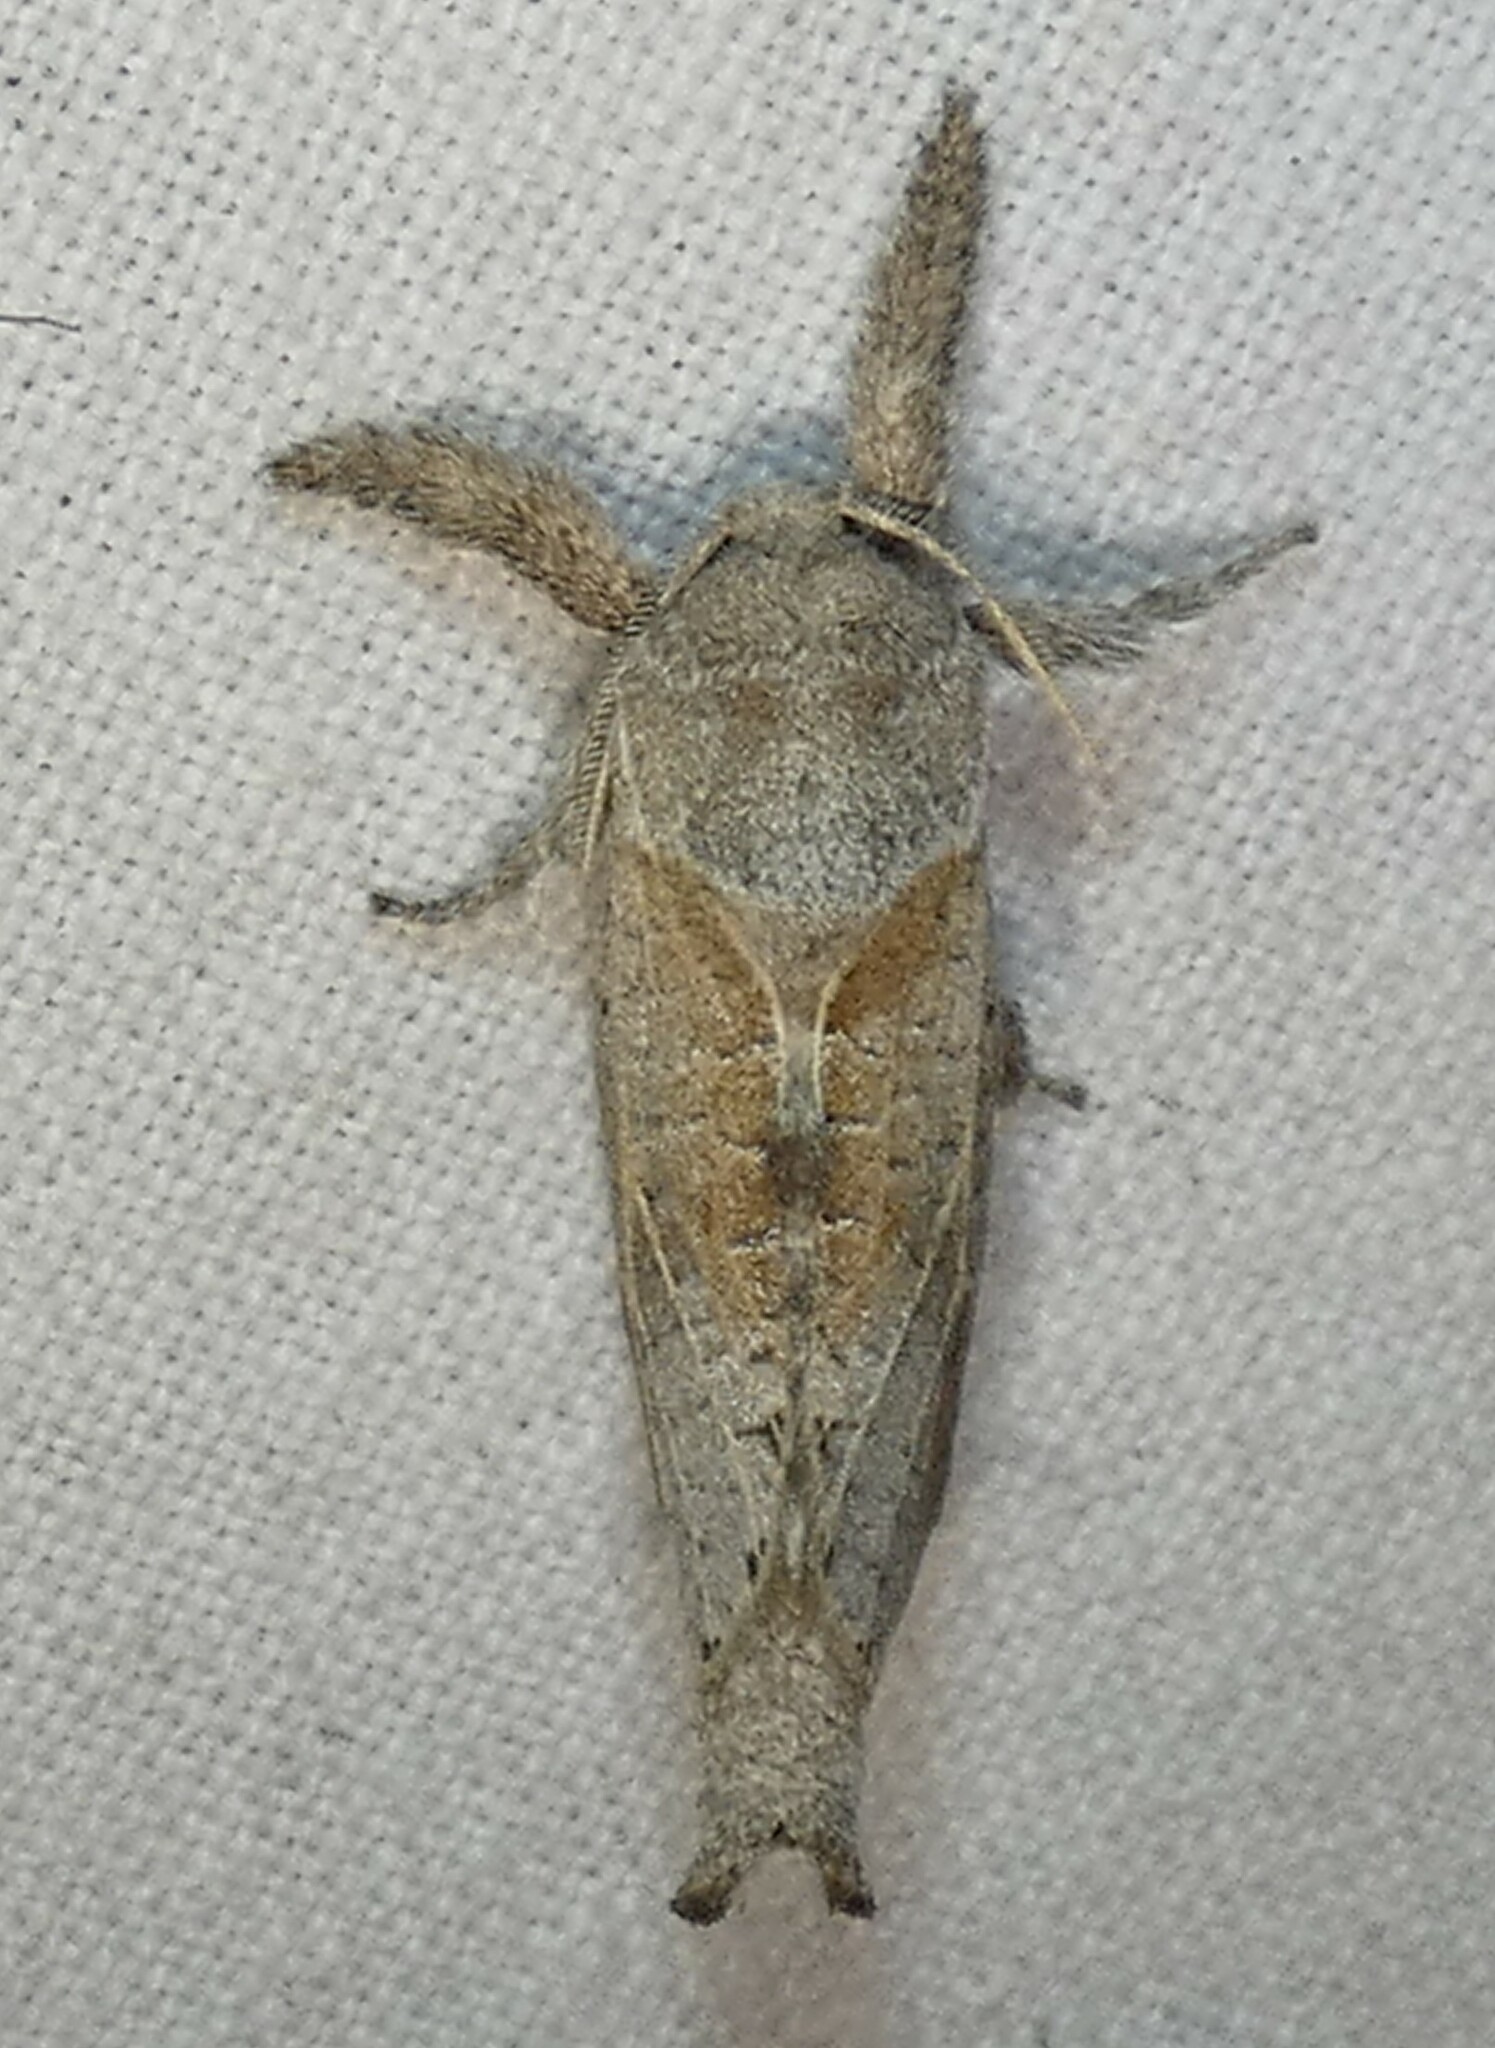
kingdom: Animalia
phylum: Arthropoda
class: Insecta
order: Lepidoptera
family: Cossidae
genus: Givira
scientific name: Givira anna
